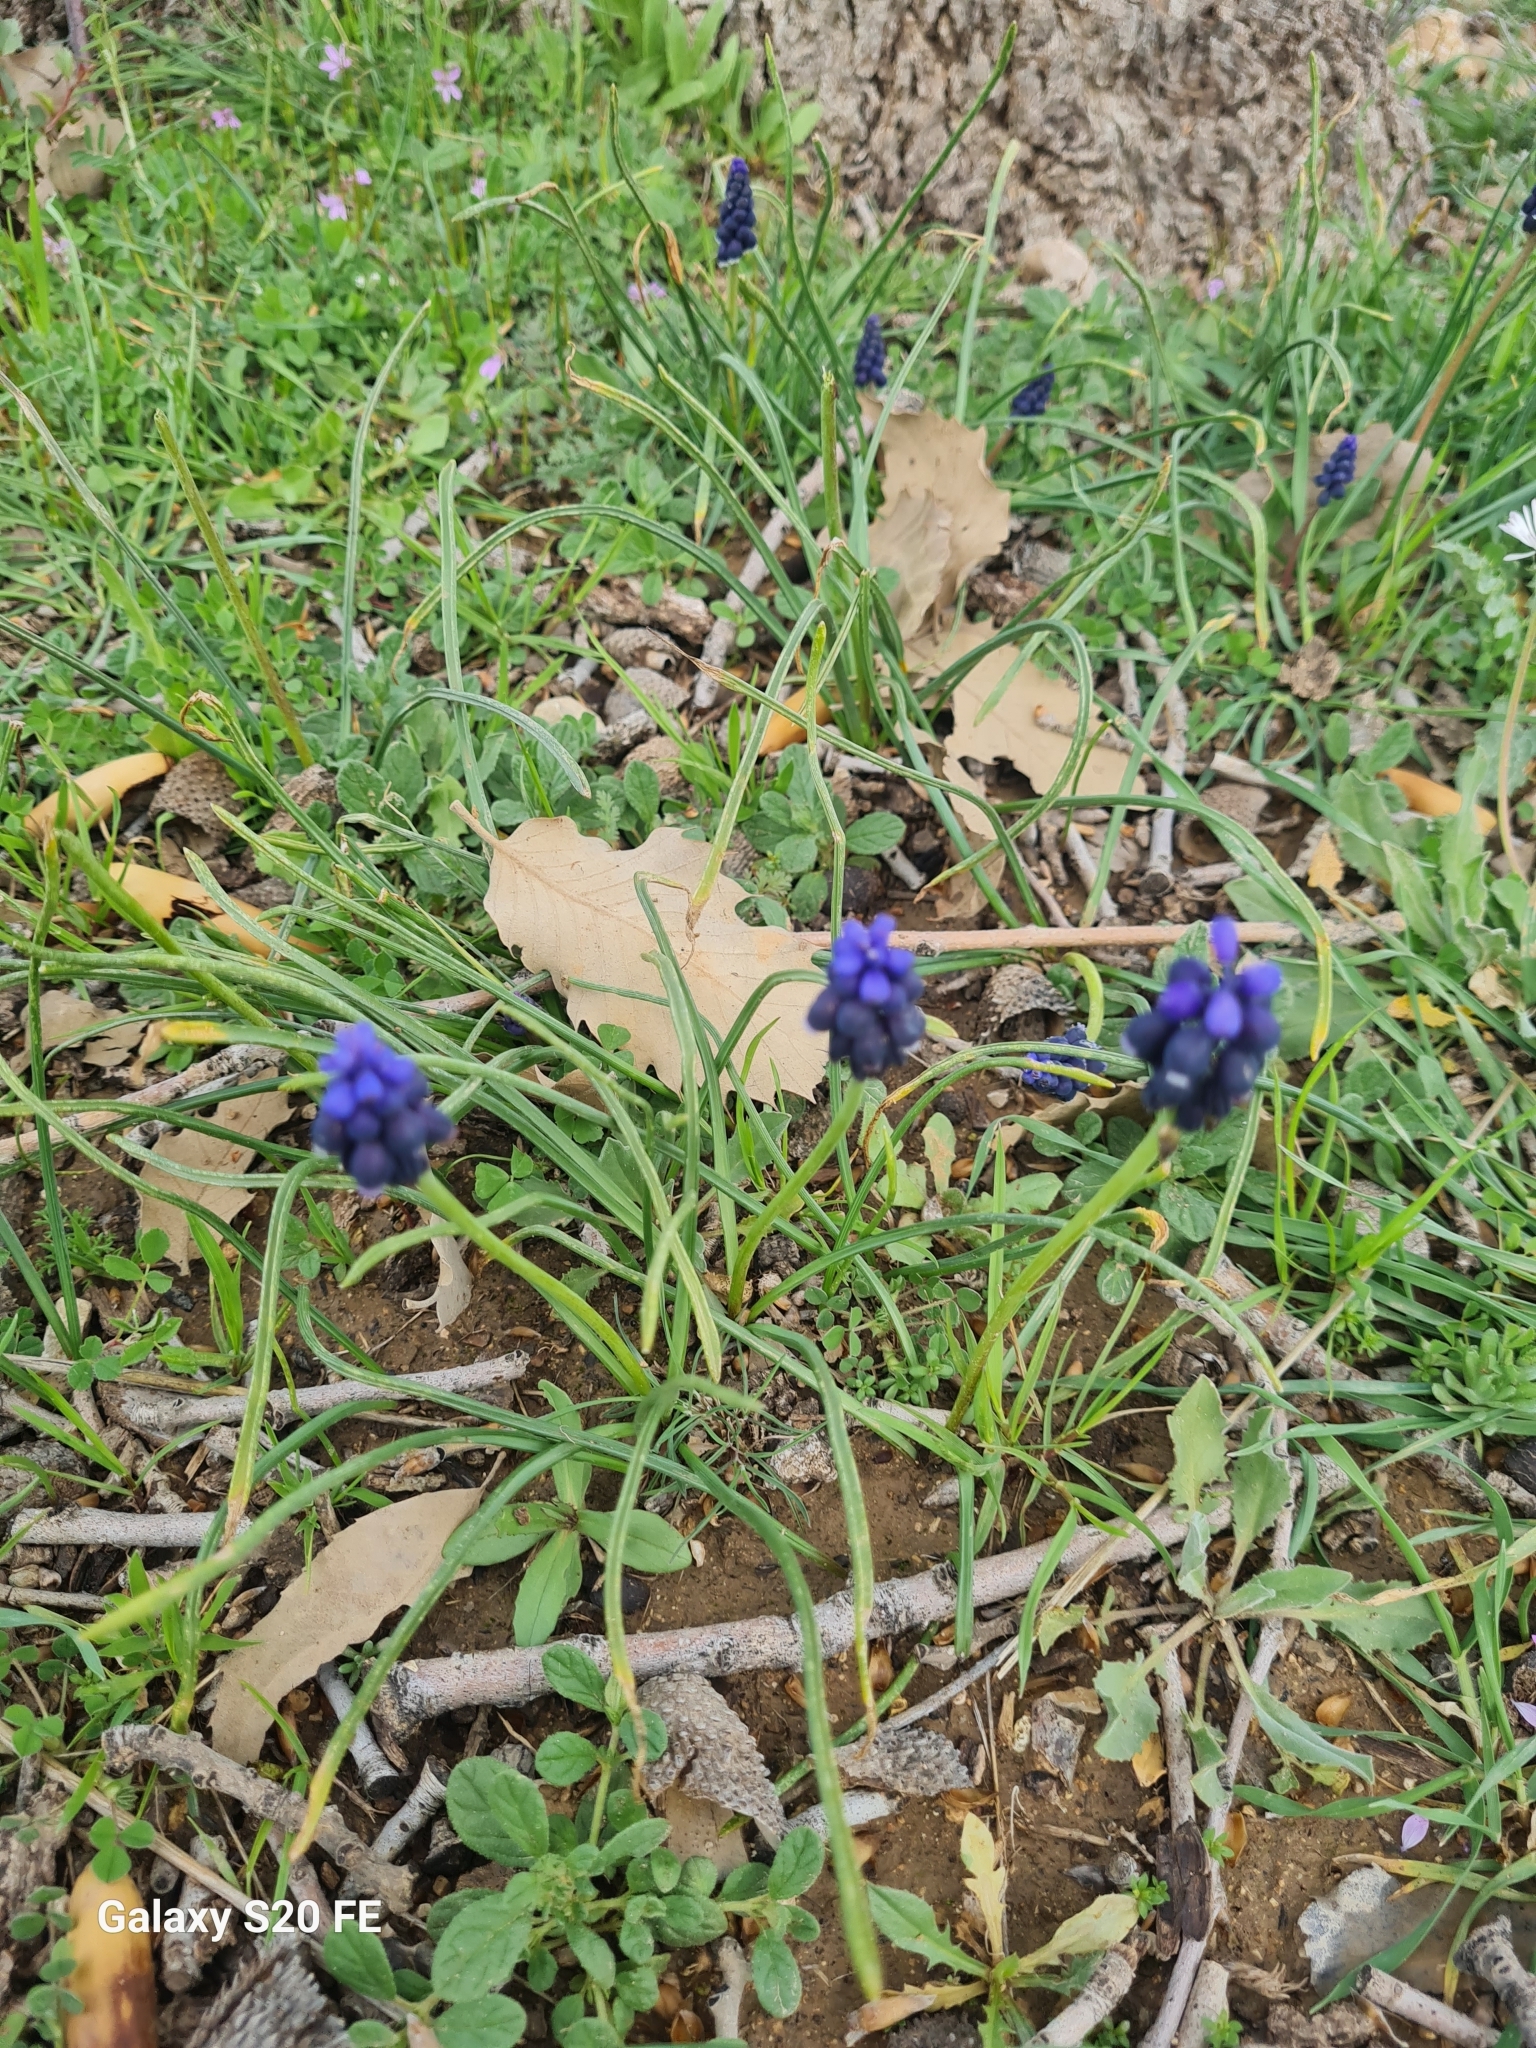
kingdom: Plantae
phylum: Tracheophyta
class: Liliopsida
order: Asparagales
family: Asparagaceae
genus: Muscari
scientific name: Muscari neglectum
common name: Grape-hyacinth
